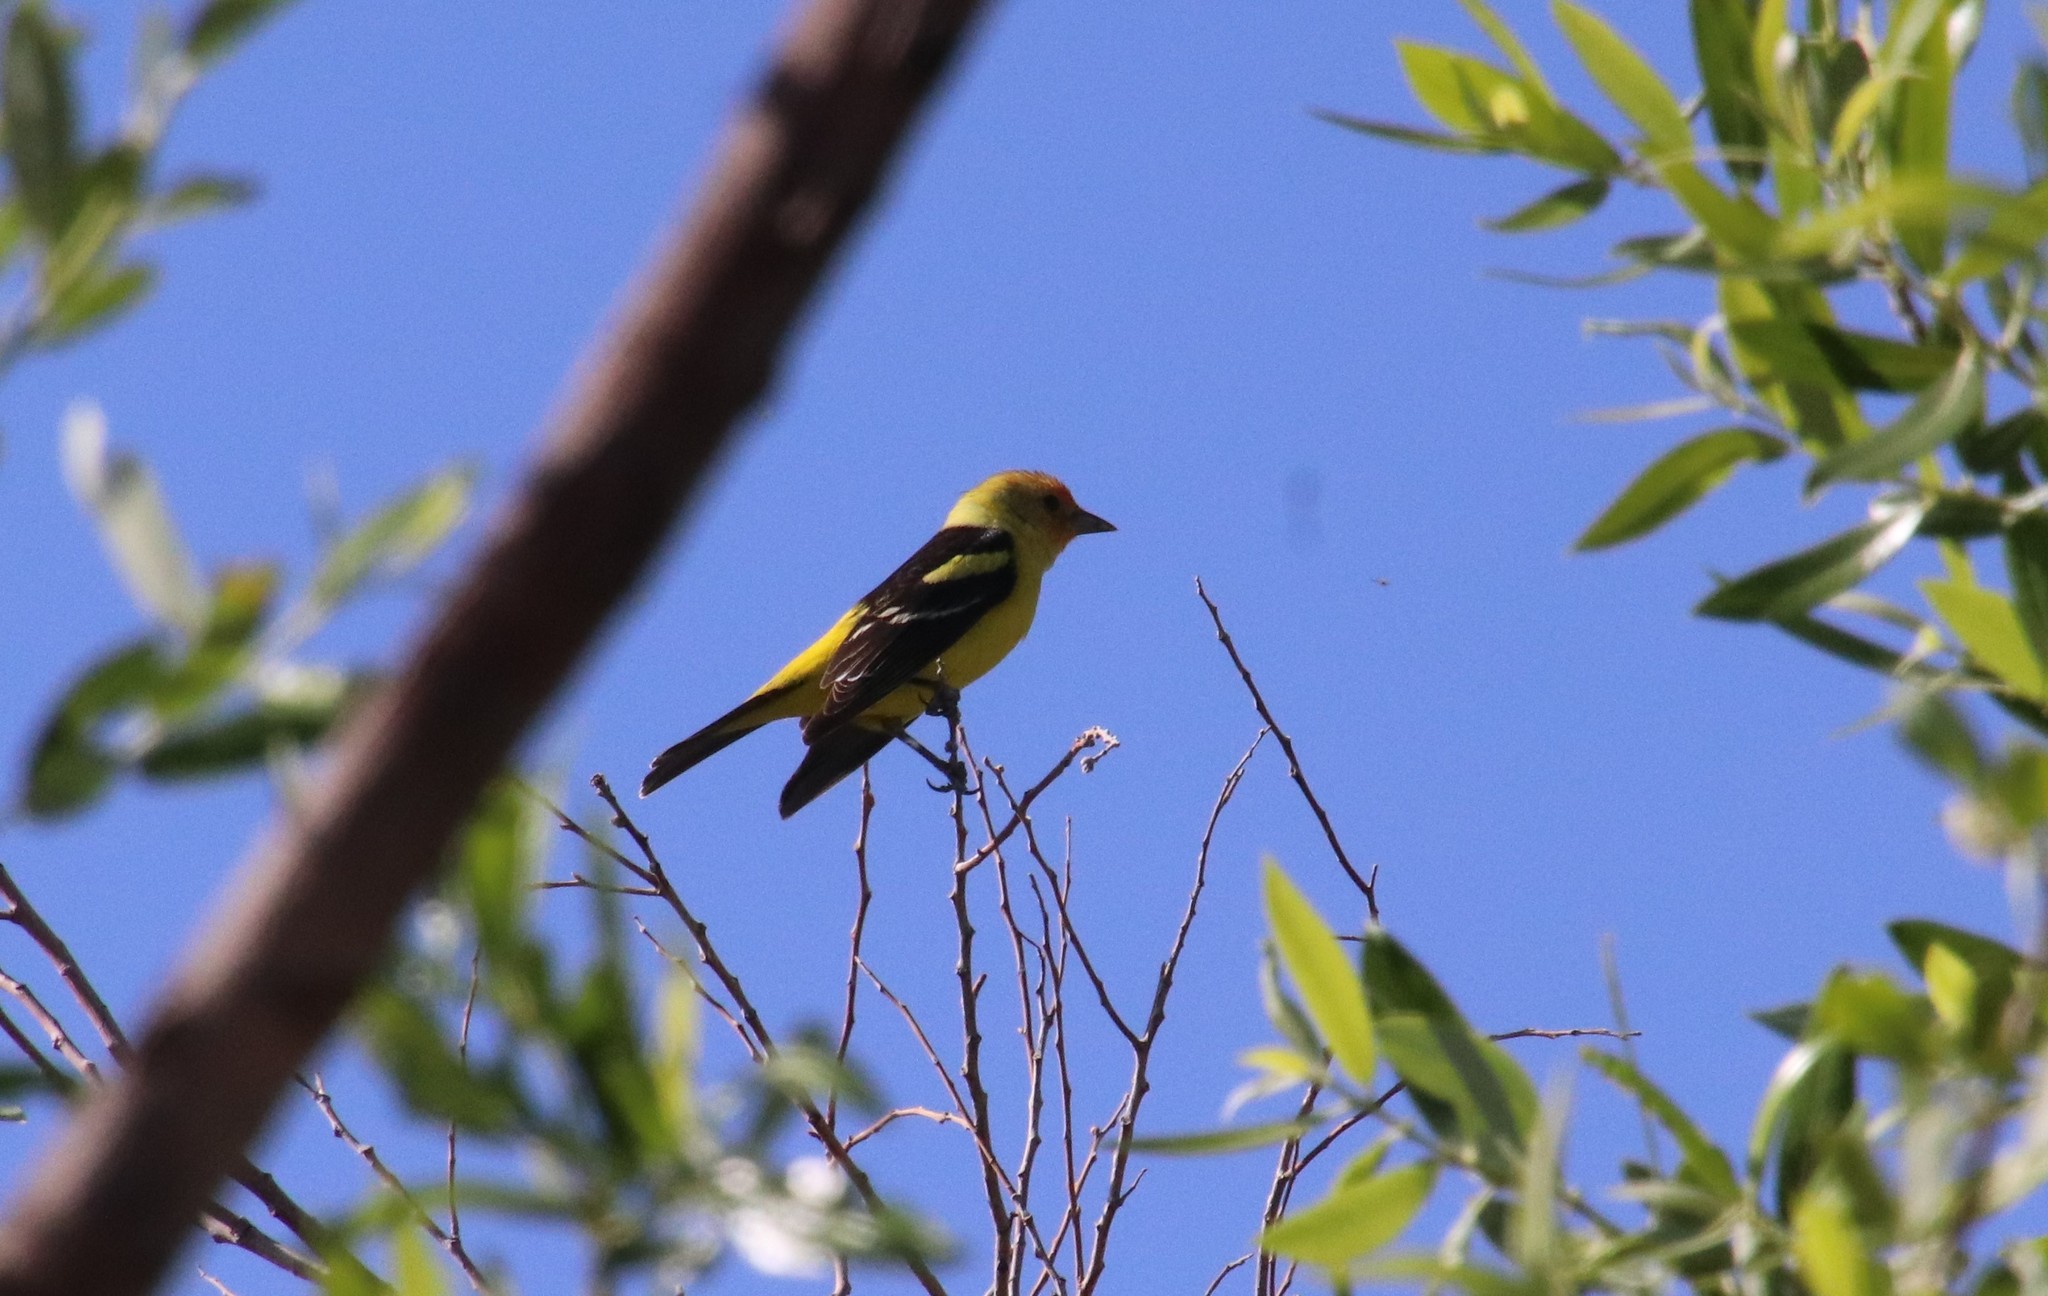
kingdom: Animalia
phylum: Chordata
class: Aves
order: Passeriformes
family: Cardinalidae
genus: Piranga
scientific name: Piranga ludoviciana
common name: Western tanager
